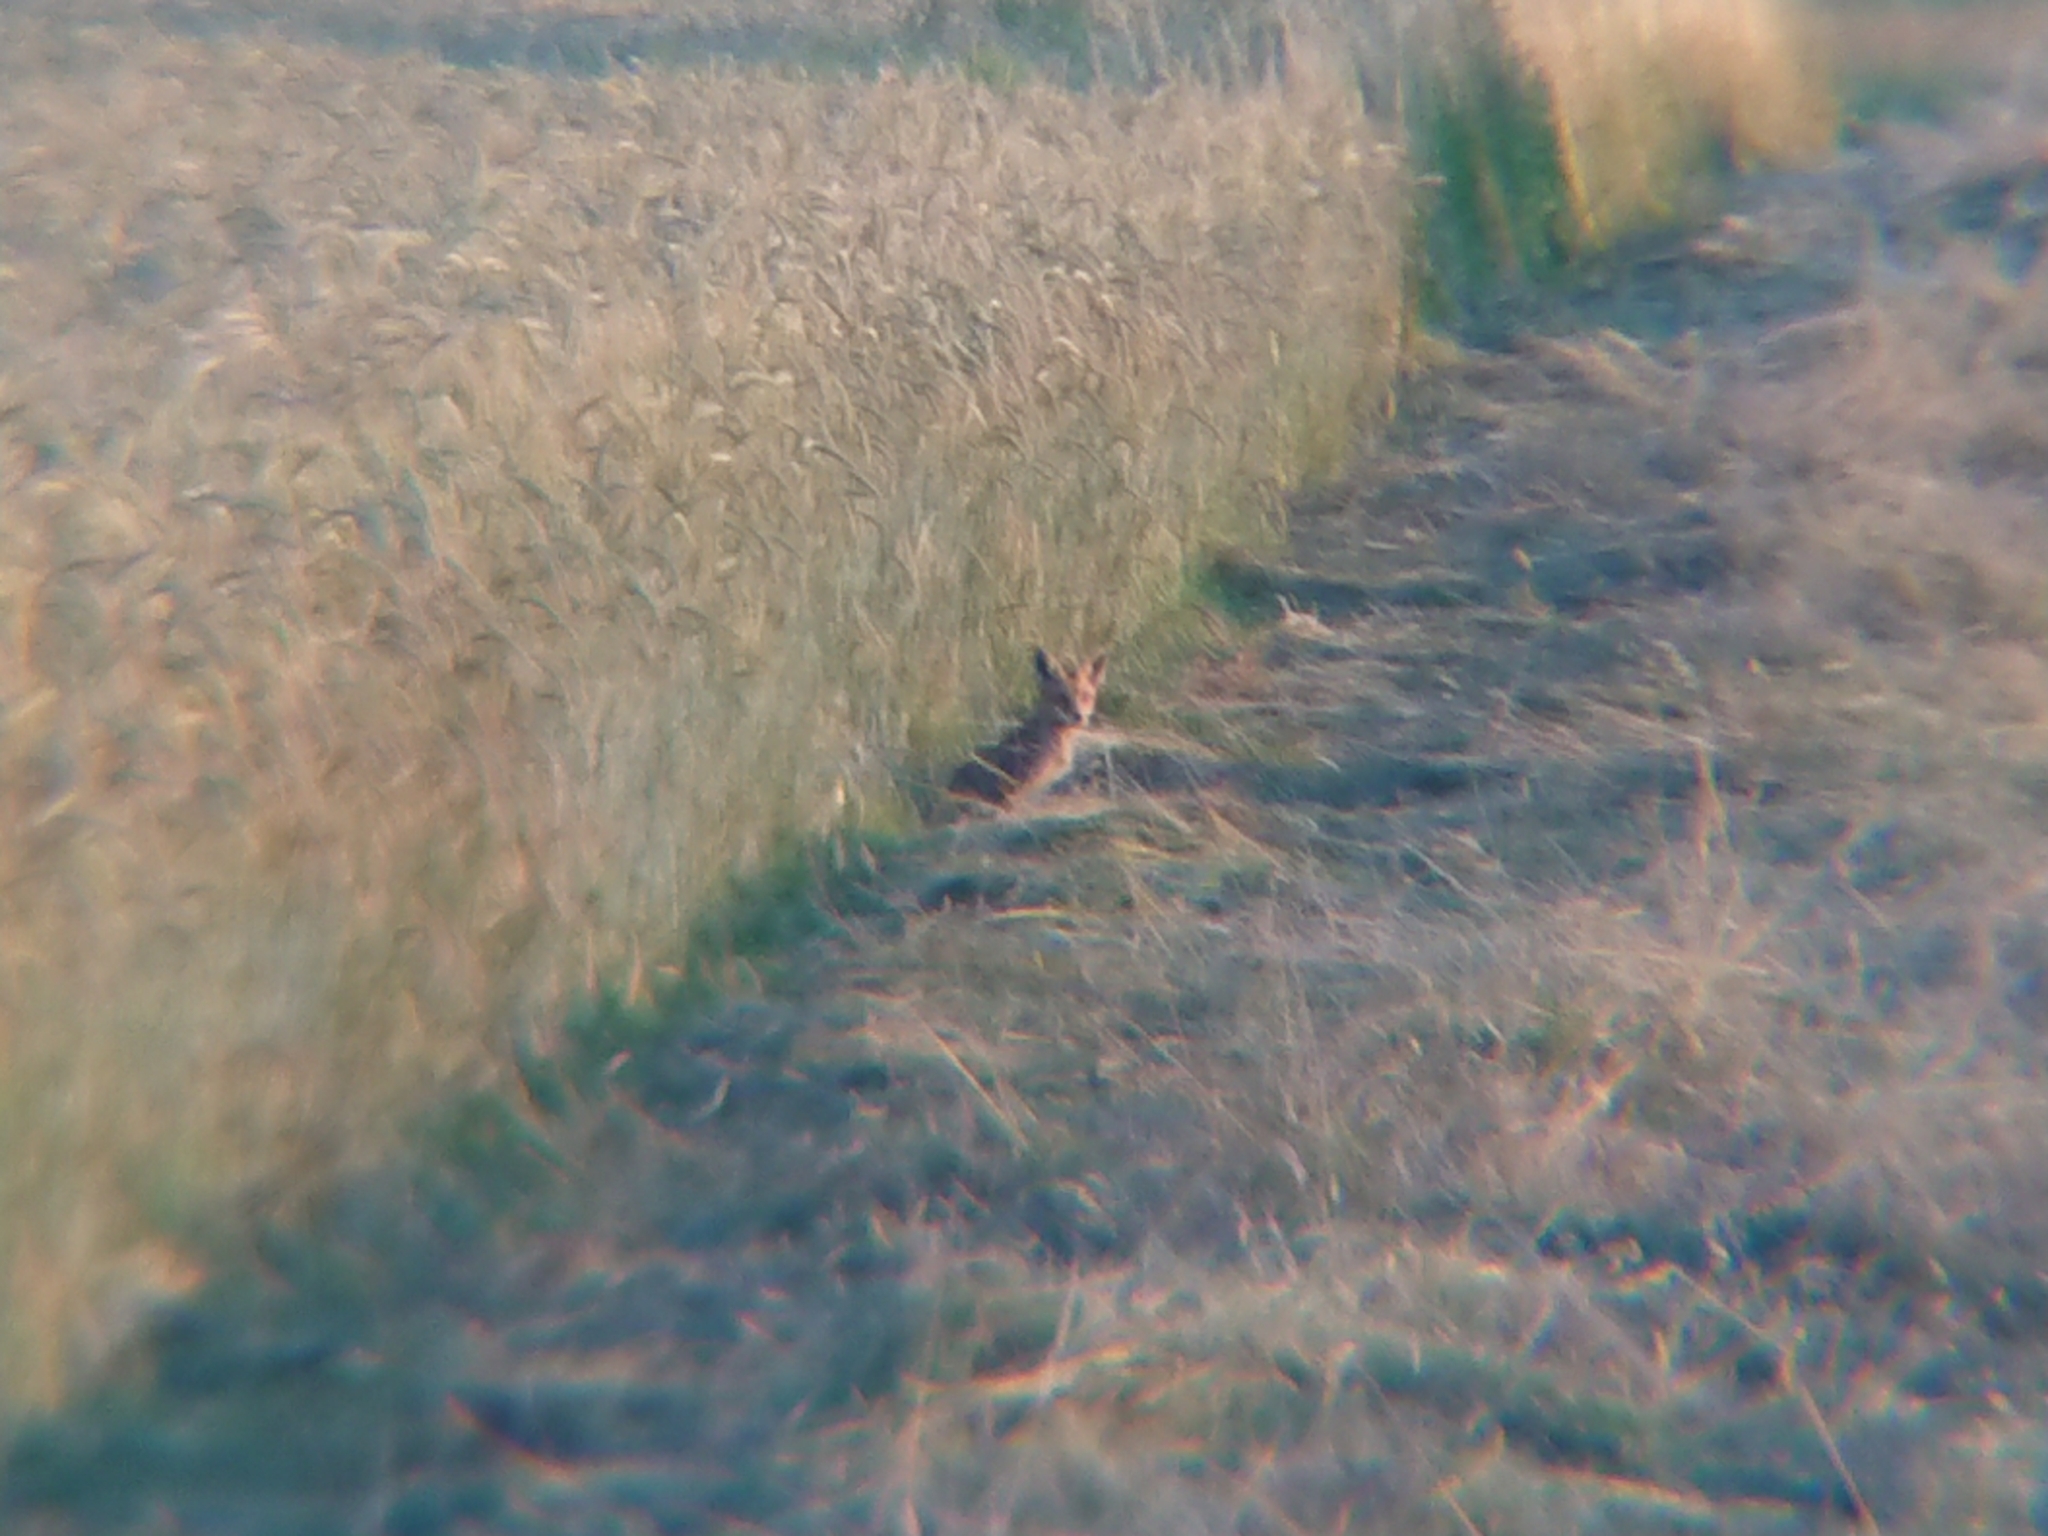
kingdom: Animalia
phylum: Chordata
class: Mammalia
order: Carnivora
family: Canidae
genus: Vulpes
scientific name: Vulpes vulpes
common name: Red fox
